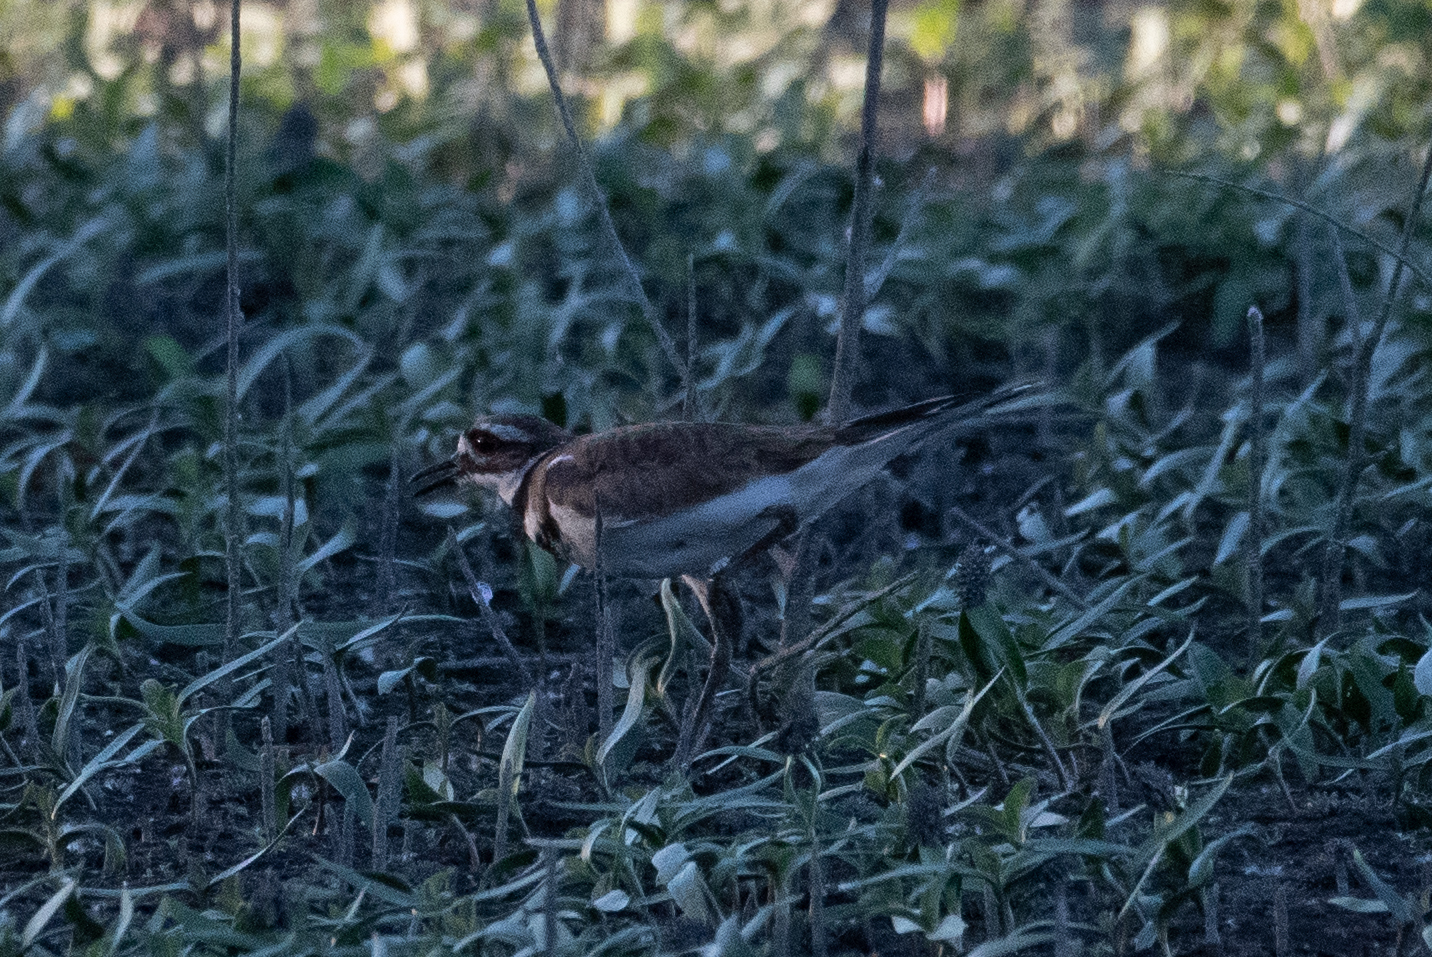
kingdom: Animalia
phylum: Chordata
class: Aves
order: Charadriiformes
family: Charadriidae
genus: Charadrius
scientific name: Charadrius vociferus
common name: Killdeer
